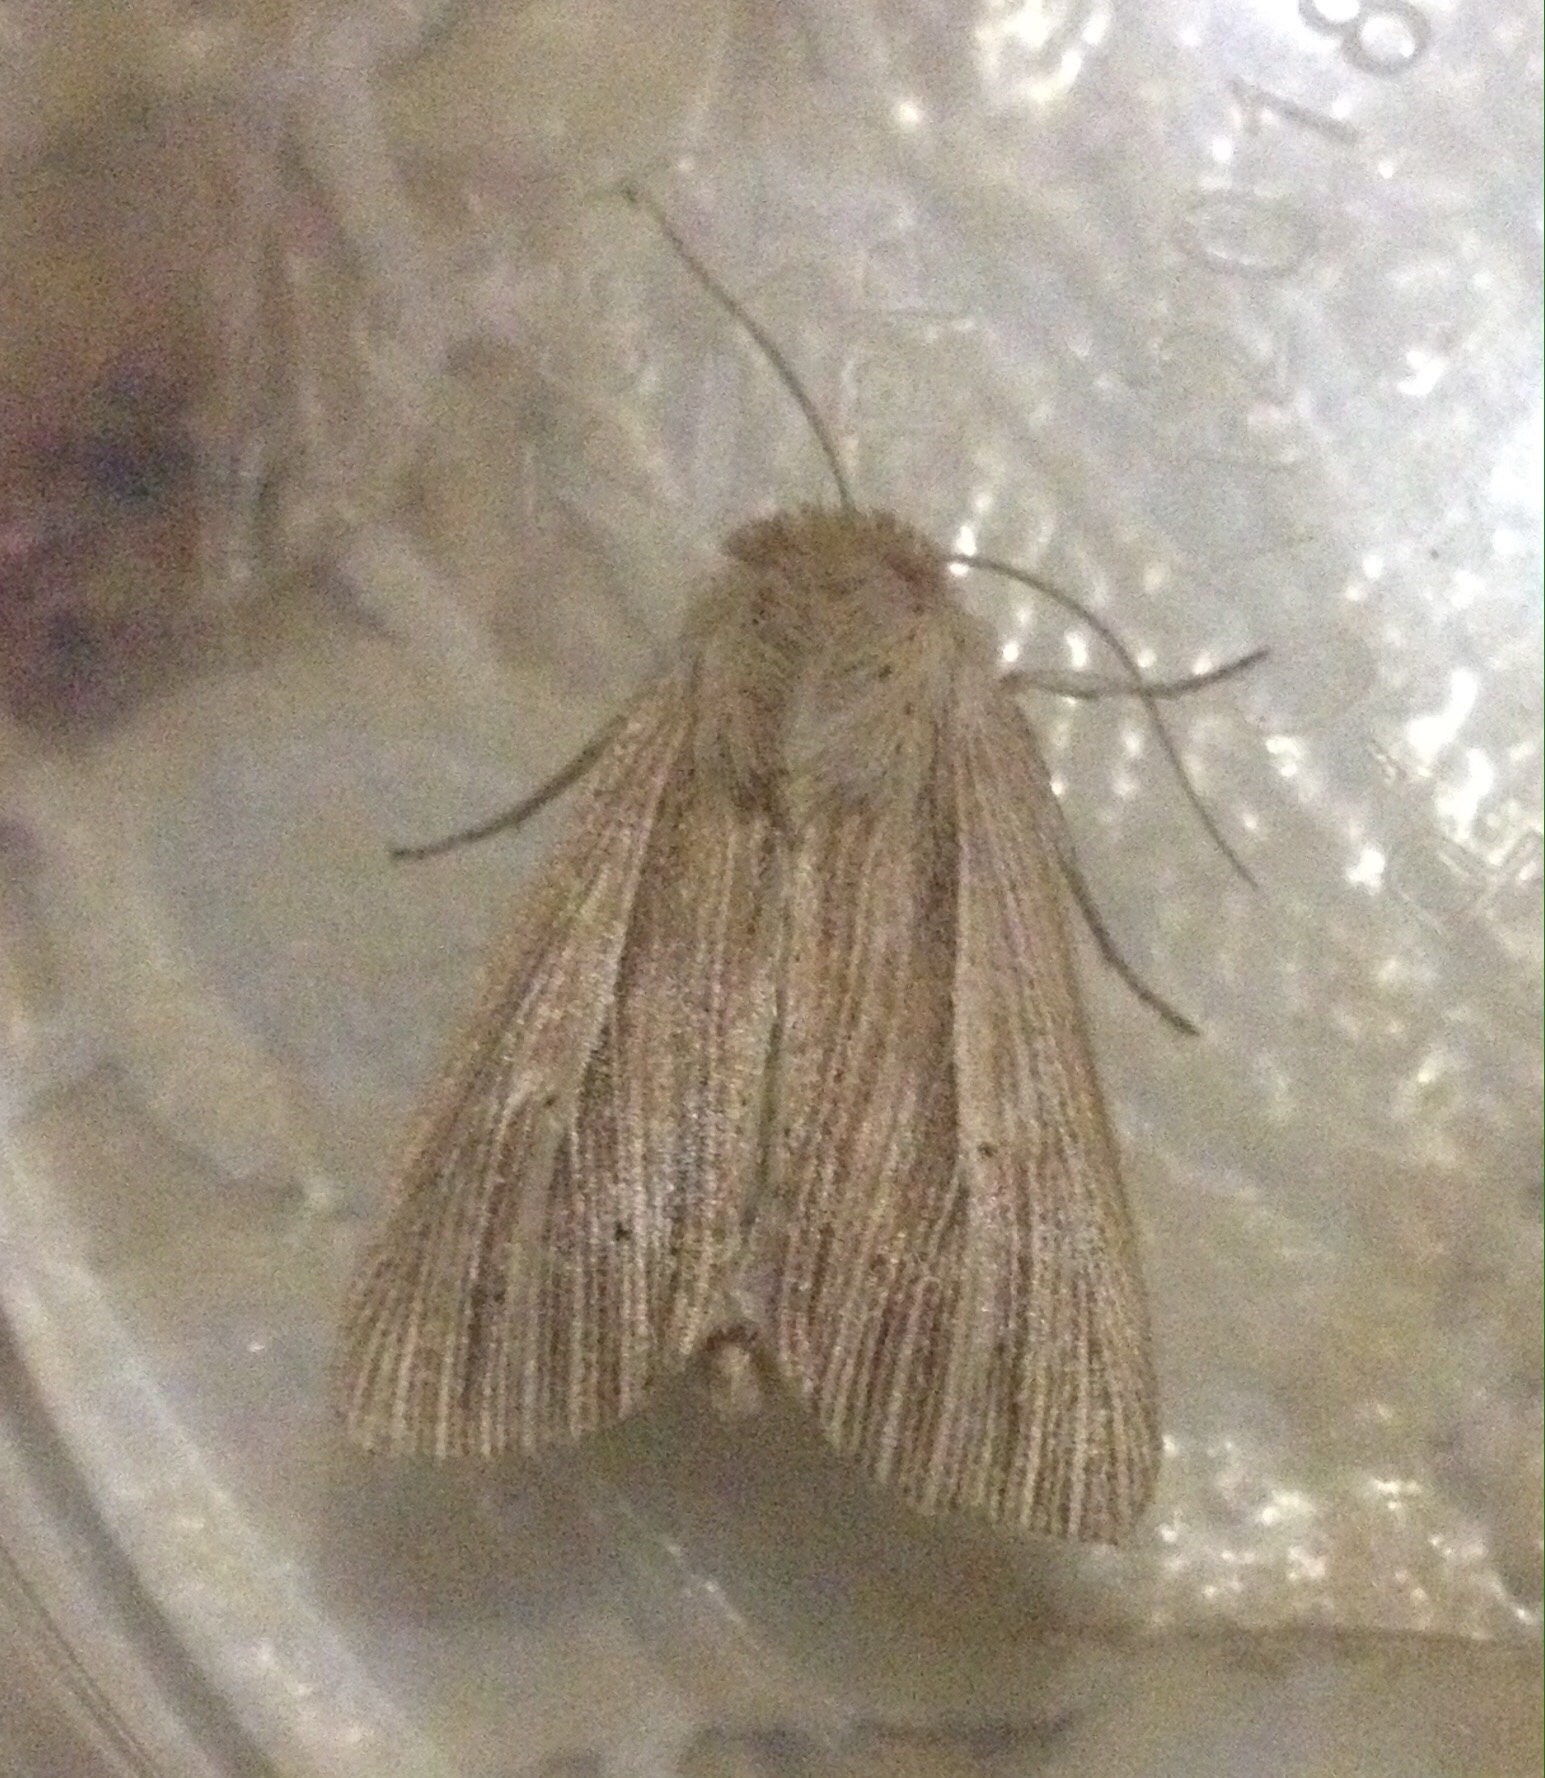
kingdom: Animalia
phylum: Arthropoda
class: Insecta
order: Lepidoptera
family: Noctuidae
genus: Mythimna
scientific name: Mythimna impura
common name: Smoky wainscot
